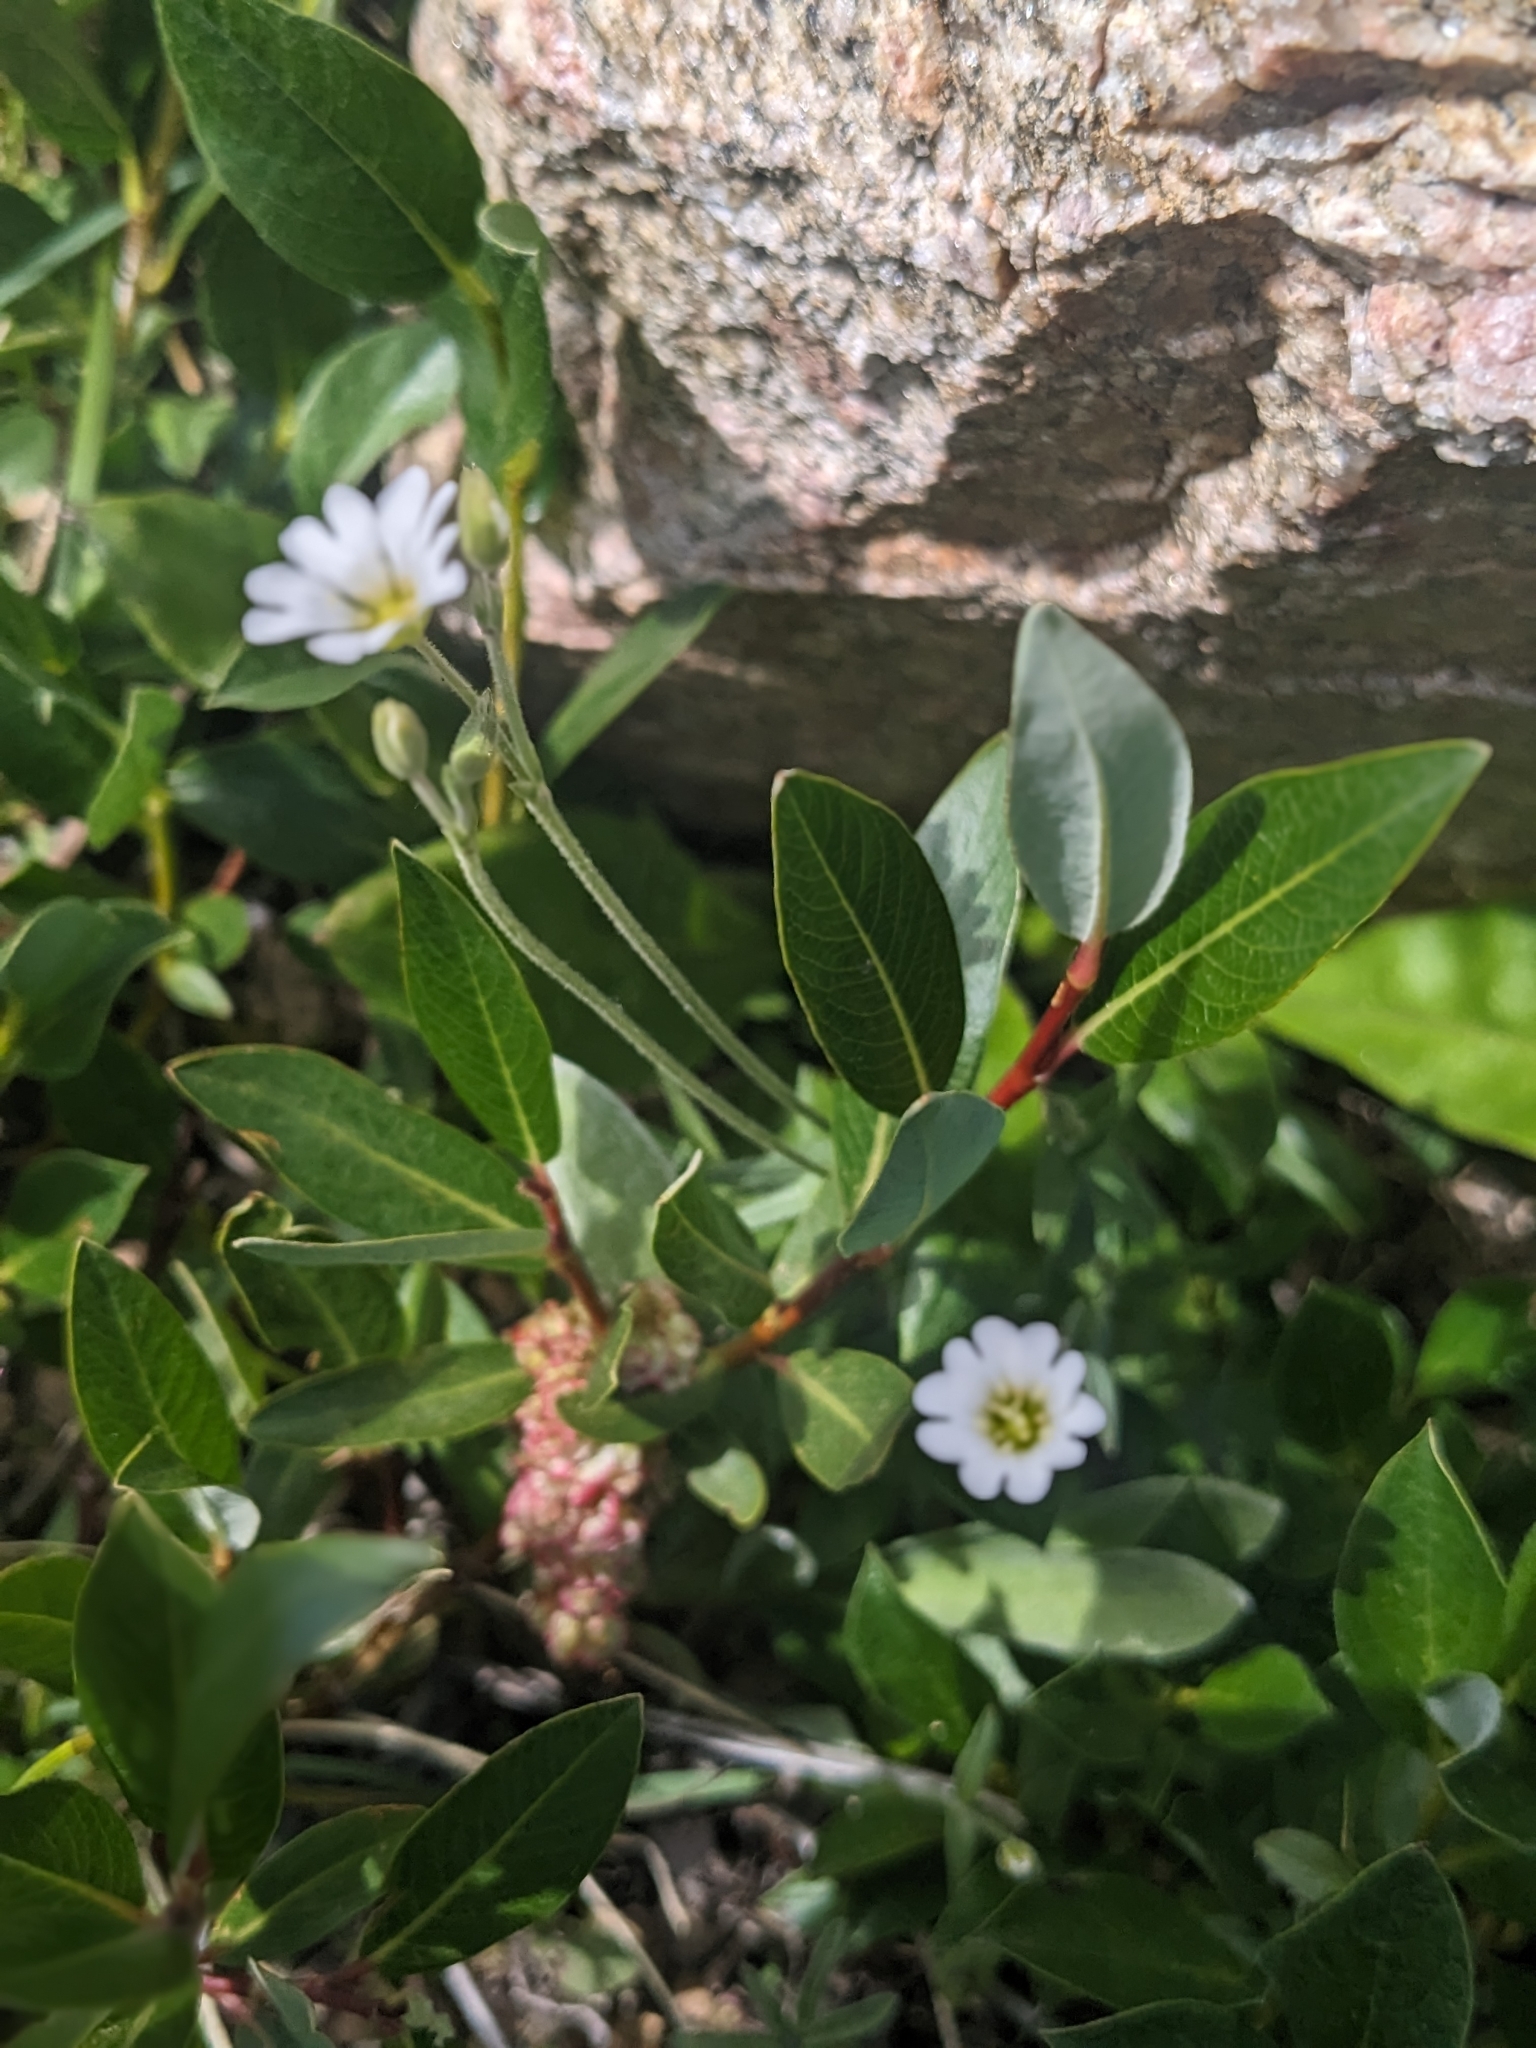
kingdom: Plantae
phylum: Tracheophyta
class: Magnoliopsida
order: Malpighiales
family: Salicaceae
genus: Salix
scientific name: Salix planifolia
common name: Mountain willow
